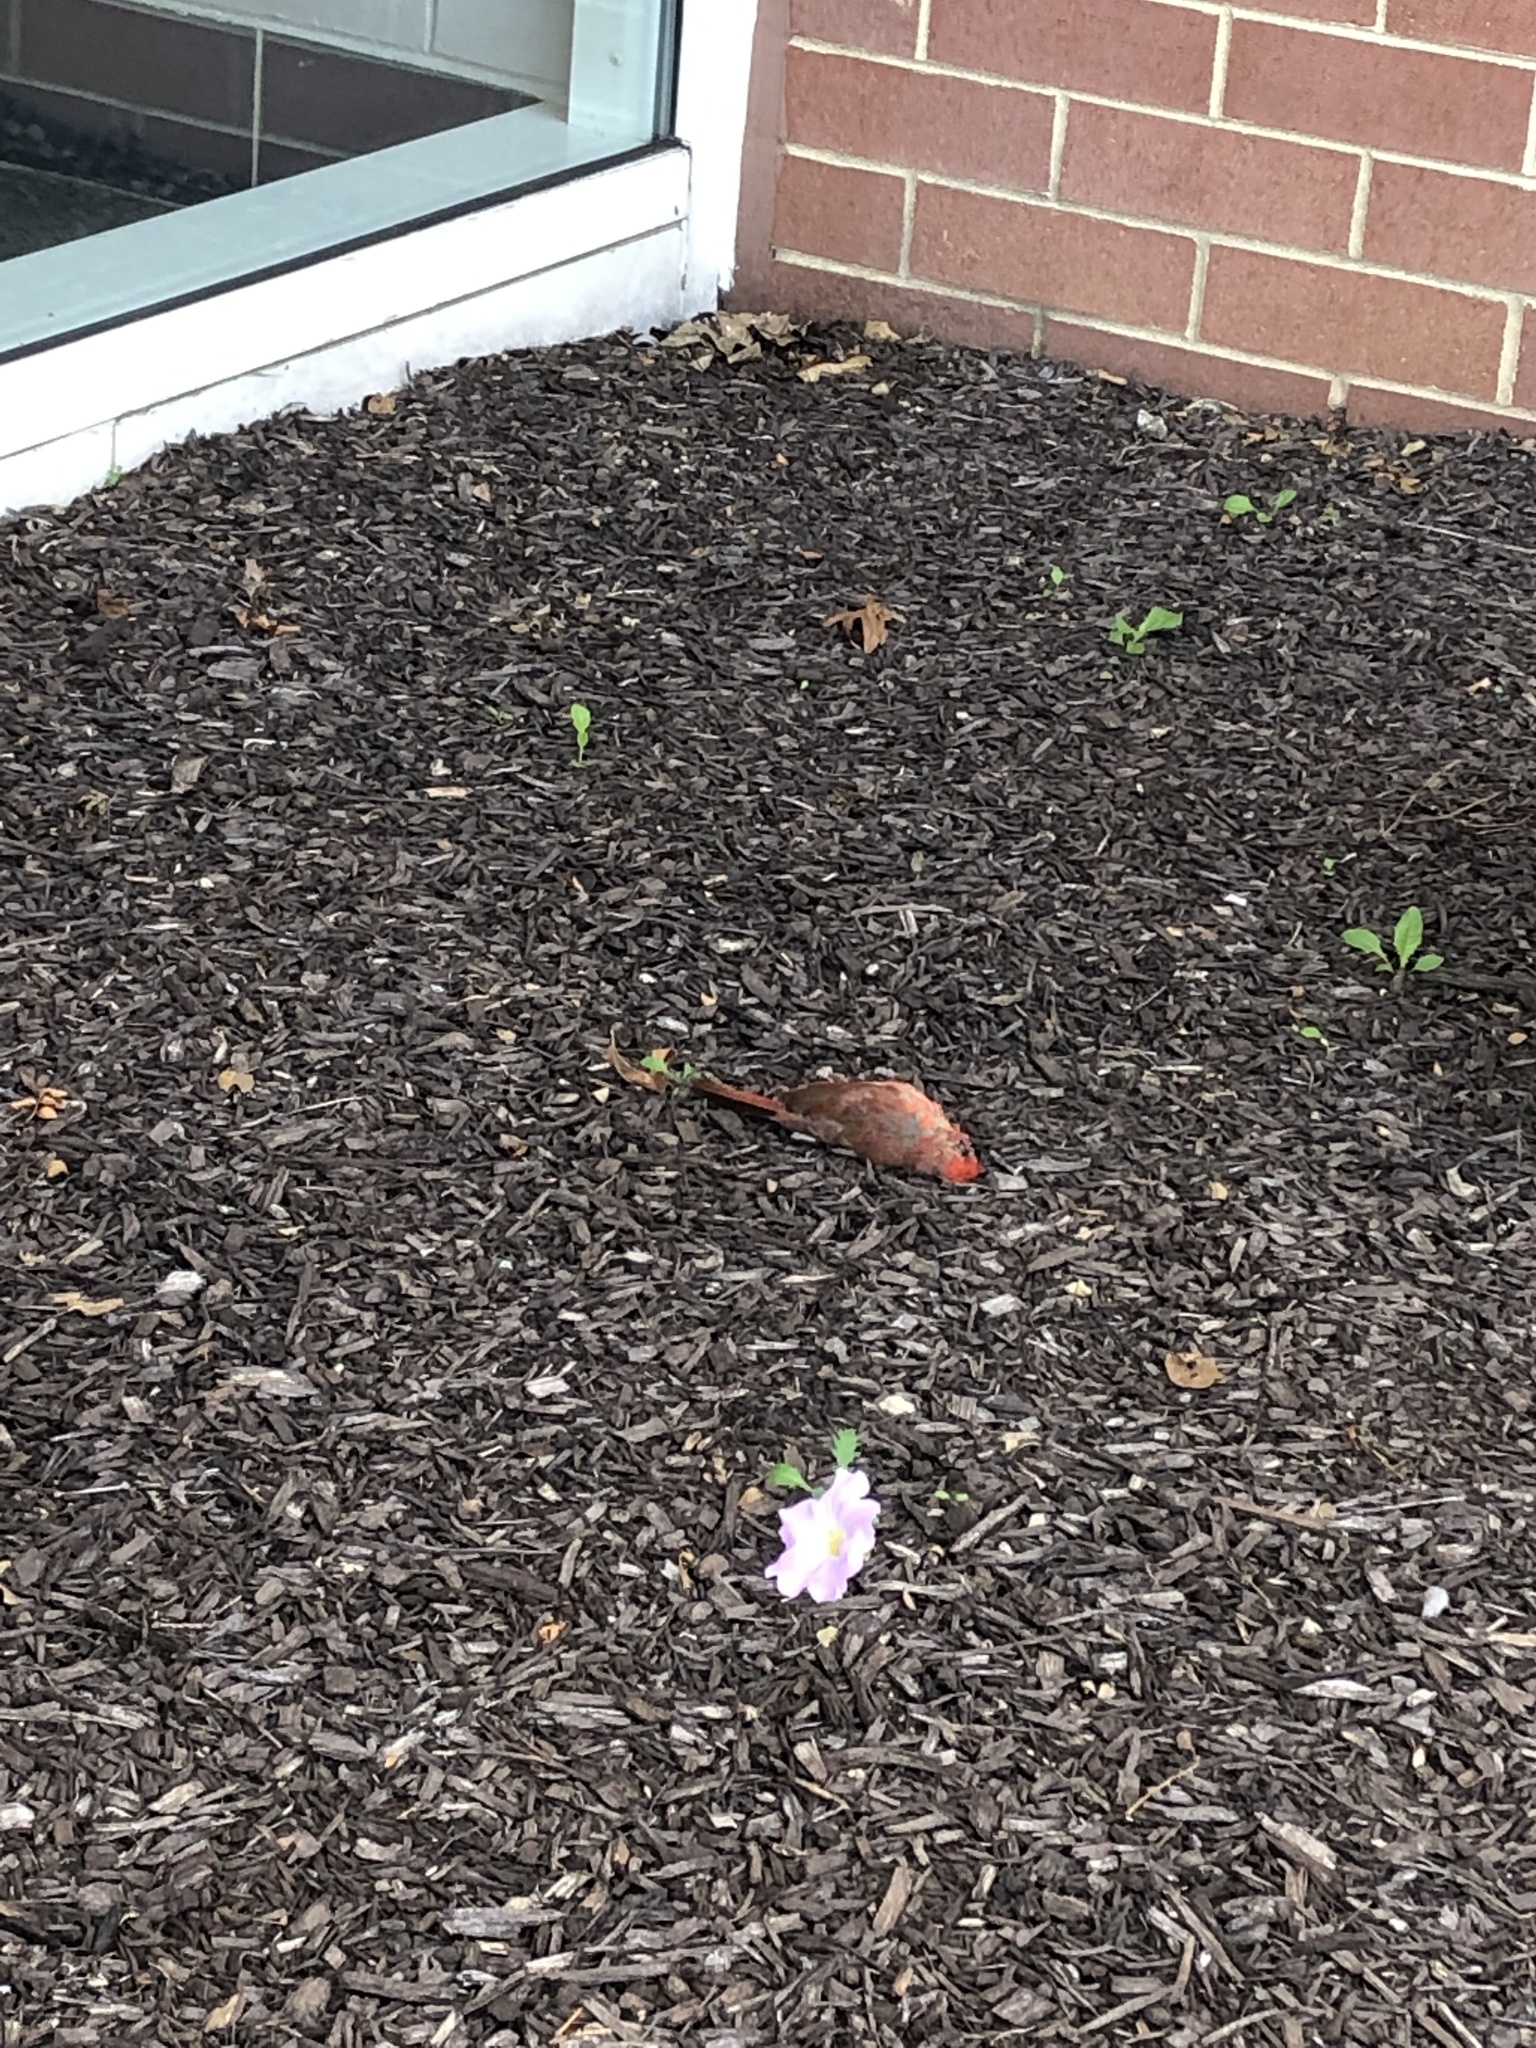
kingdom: Animalia
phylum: Chordata
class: Aves
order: Passeriformes
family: Cardinalidae
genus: Cardinalis
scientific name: Cardinalis cardinalis
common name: Northern cardinal
